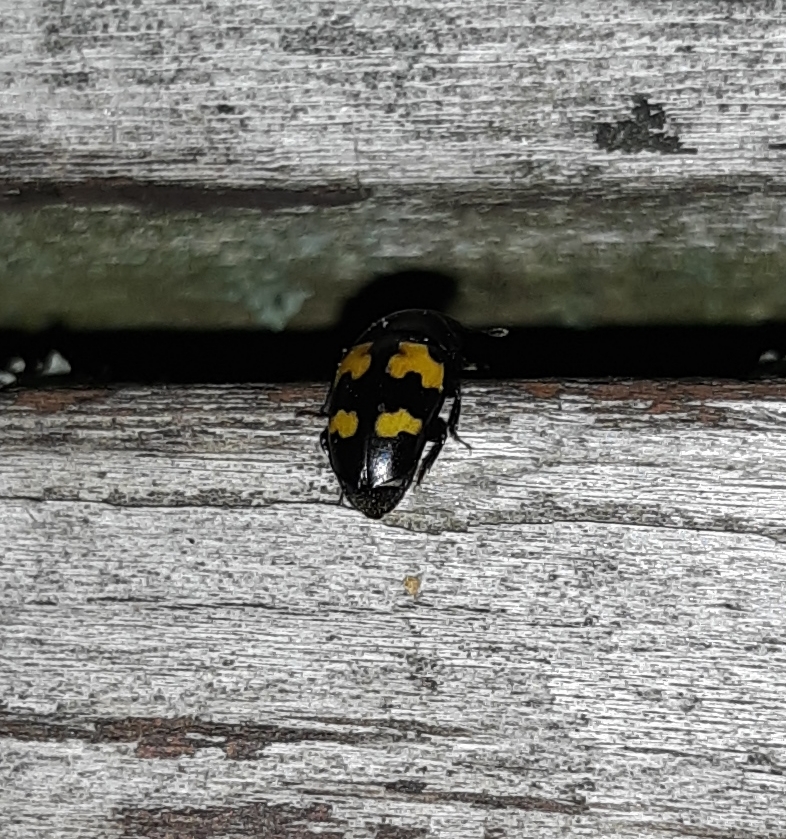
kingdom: Animalia
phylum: Arthropoda
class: Insecta
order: Coleoptera
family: Nitidulidae
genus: Glischrochilus
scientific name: Glischrochilus fasciatus
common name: Picnic beetle
